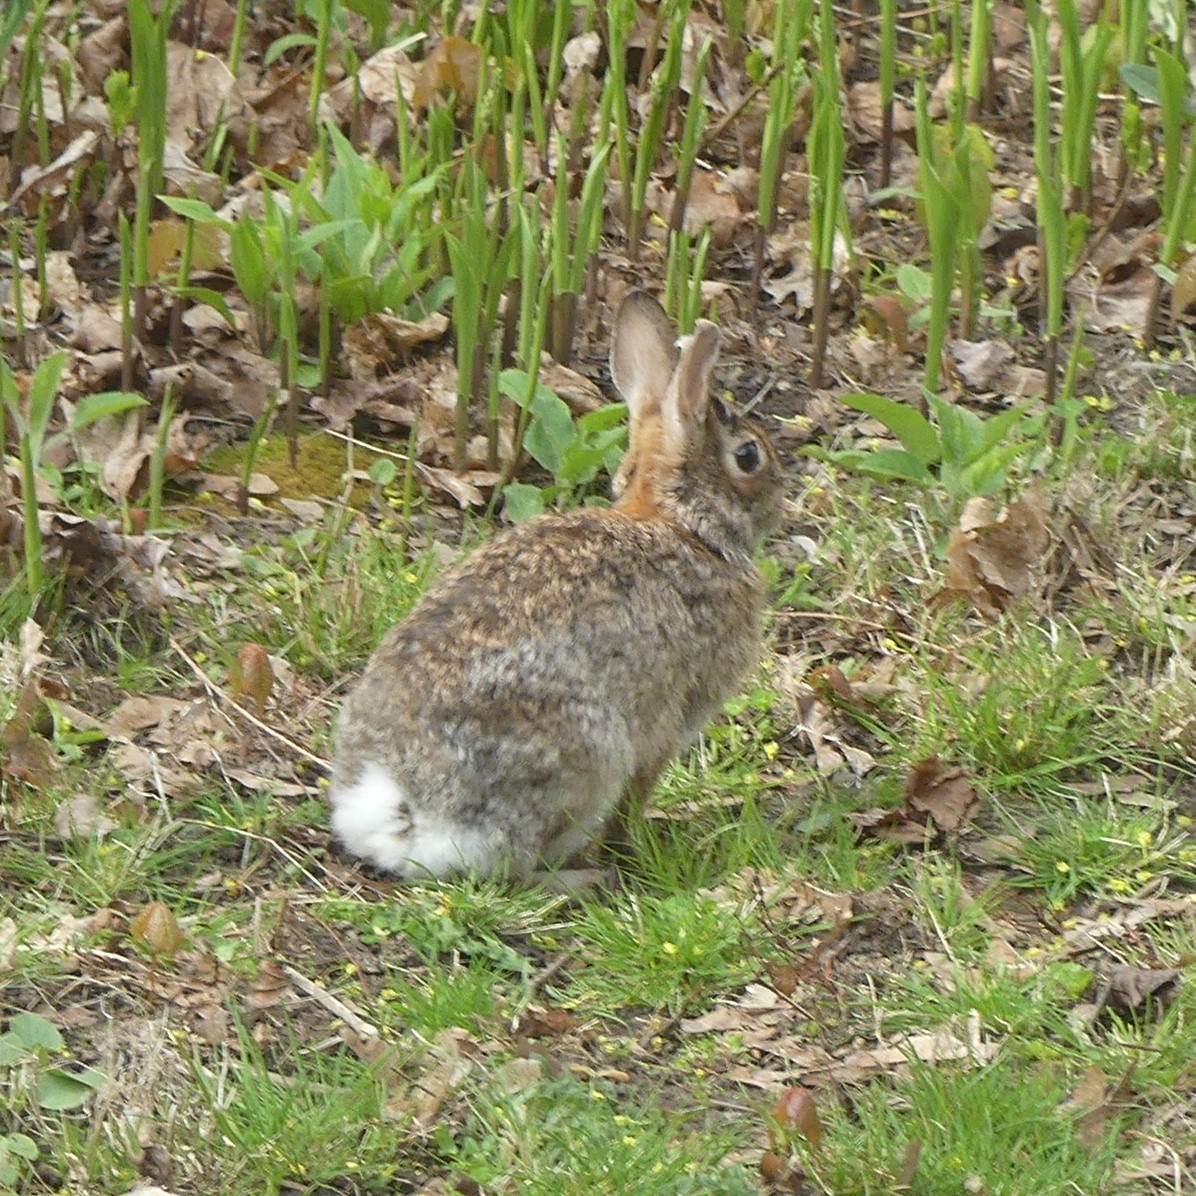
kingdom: Animalia
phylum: Chordata
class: Mammalia
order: Lagomorpha
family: Leporidae
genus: Sylvilagus
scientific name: Sylvilagus floridanus
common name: Eastern cottontail
